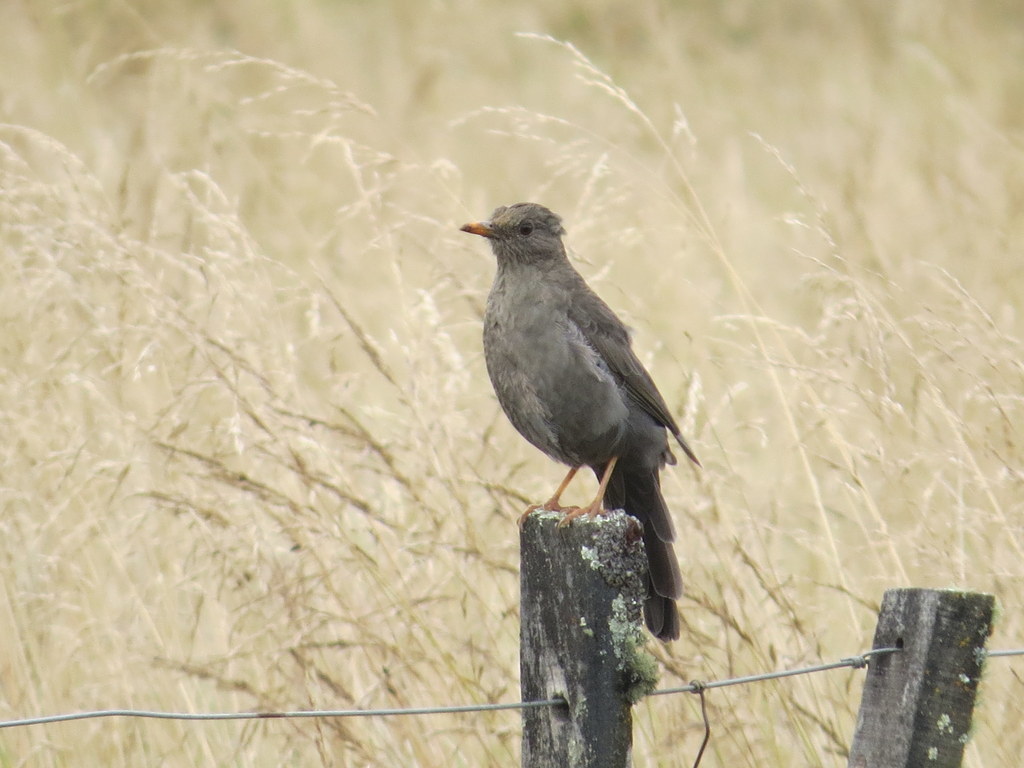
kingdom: Animalia
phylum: Chordata
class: Aves
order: Passeriformes
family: Turdidae
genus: Turdus
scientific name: Turdus chiguanco
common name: Chiguanco thrush
